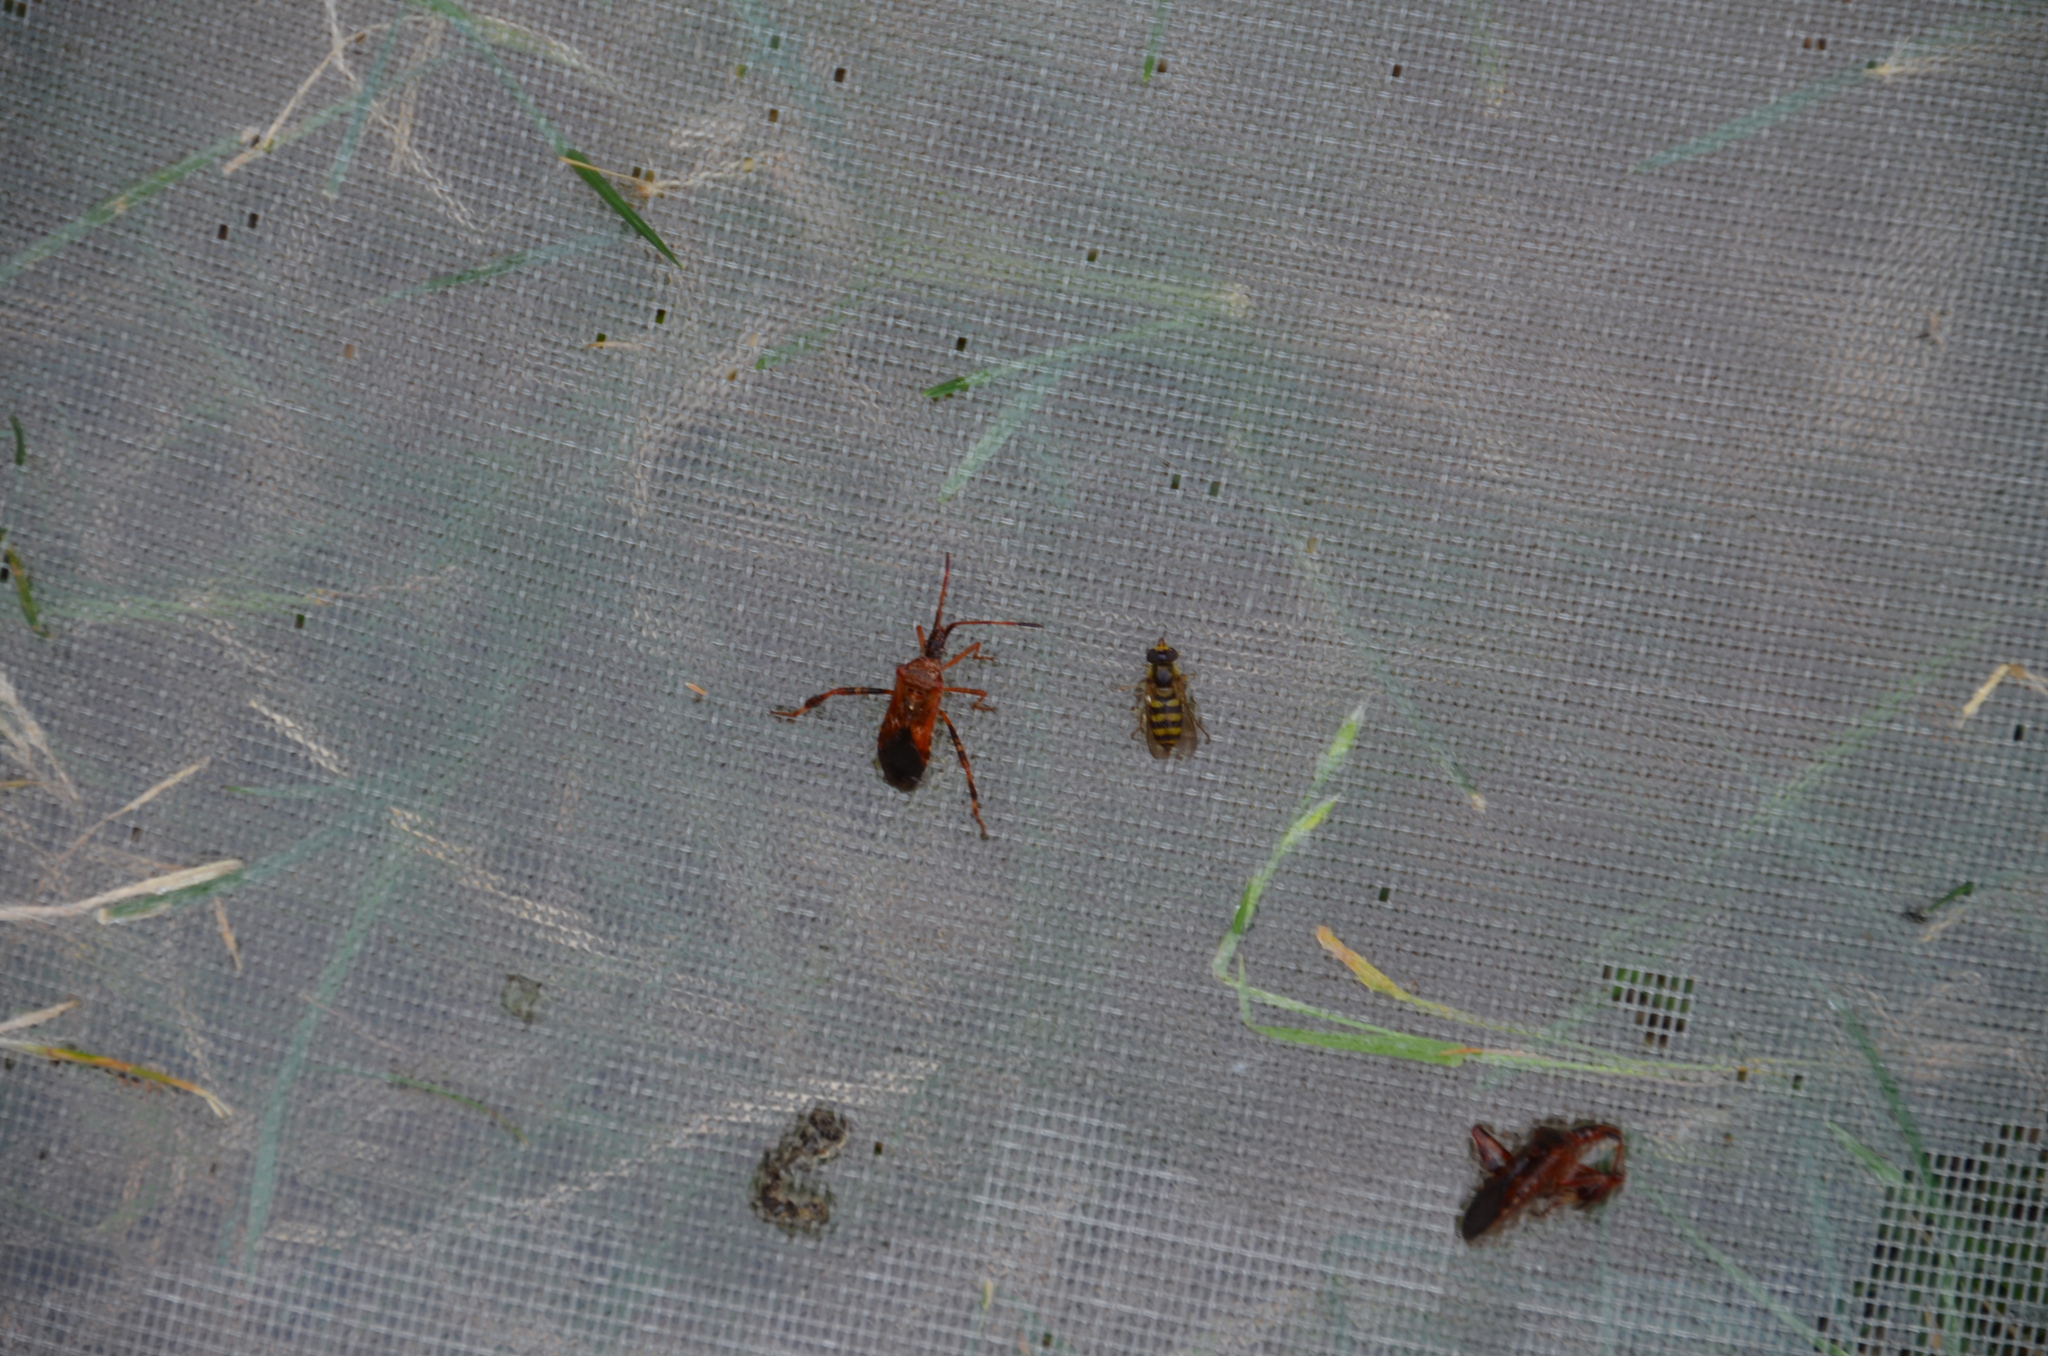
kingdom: Animalia
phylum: Arthropoda
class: Insecta
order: Hemiptera
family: Coreidae
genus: Leptoglossus
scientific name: Leptoglossus occidentalis
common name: Western conifer-seed bug
